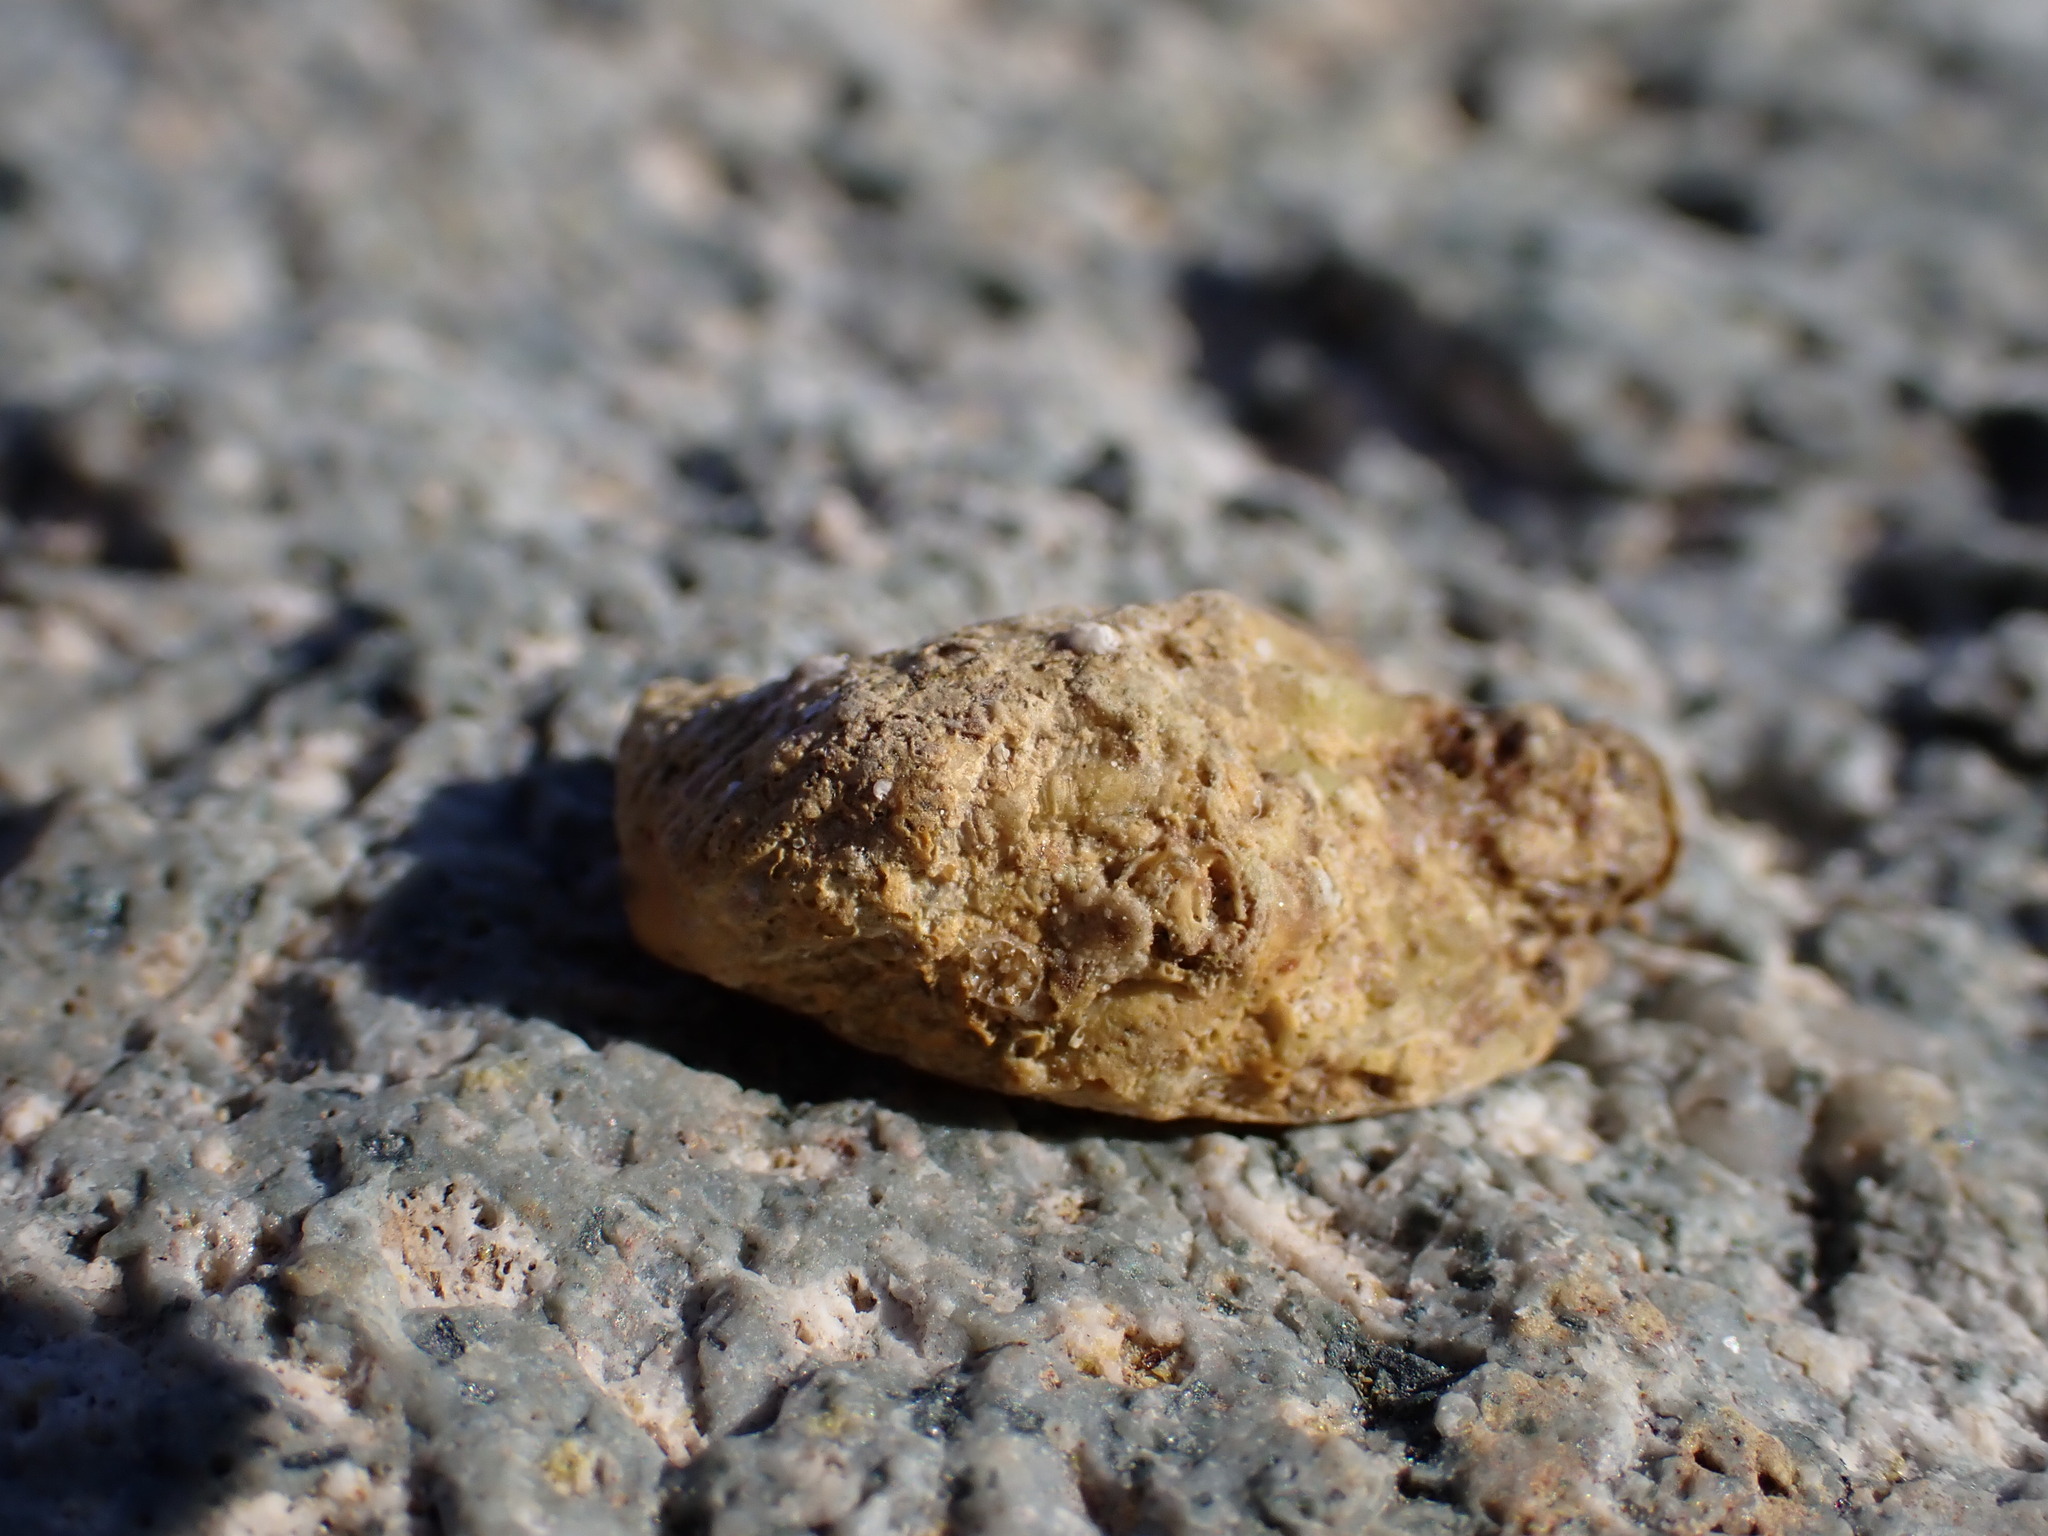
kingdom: Animalia
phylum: Mollusca
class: Bivalvia
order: Carditida
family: Carditidae
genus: Cardita
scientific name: Cardita calyculata
